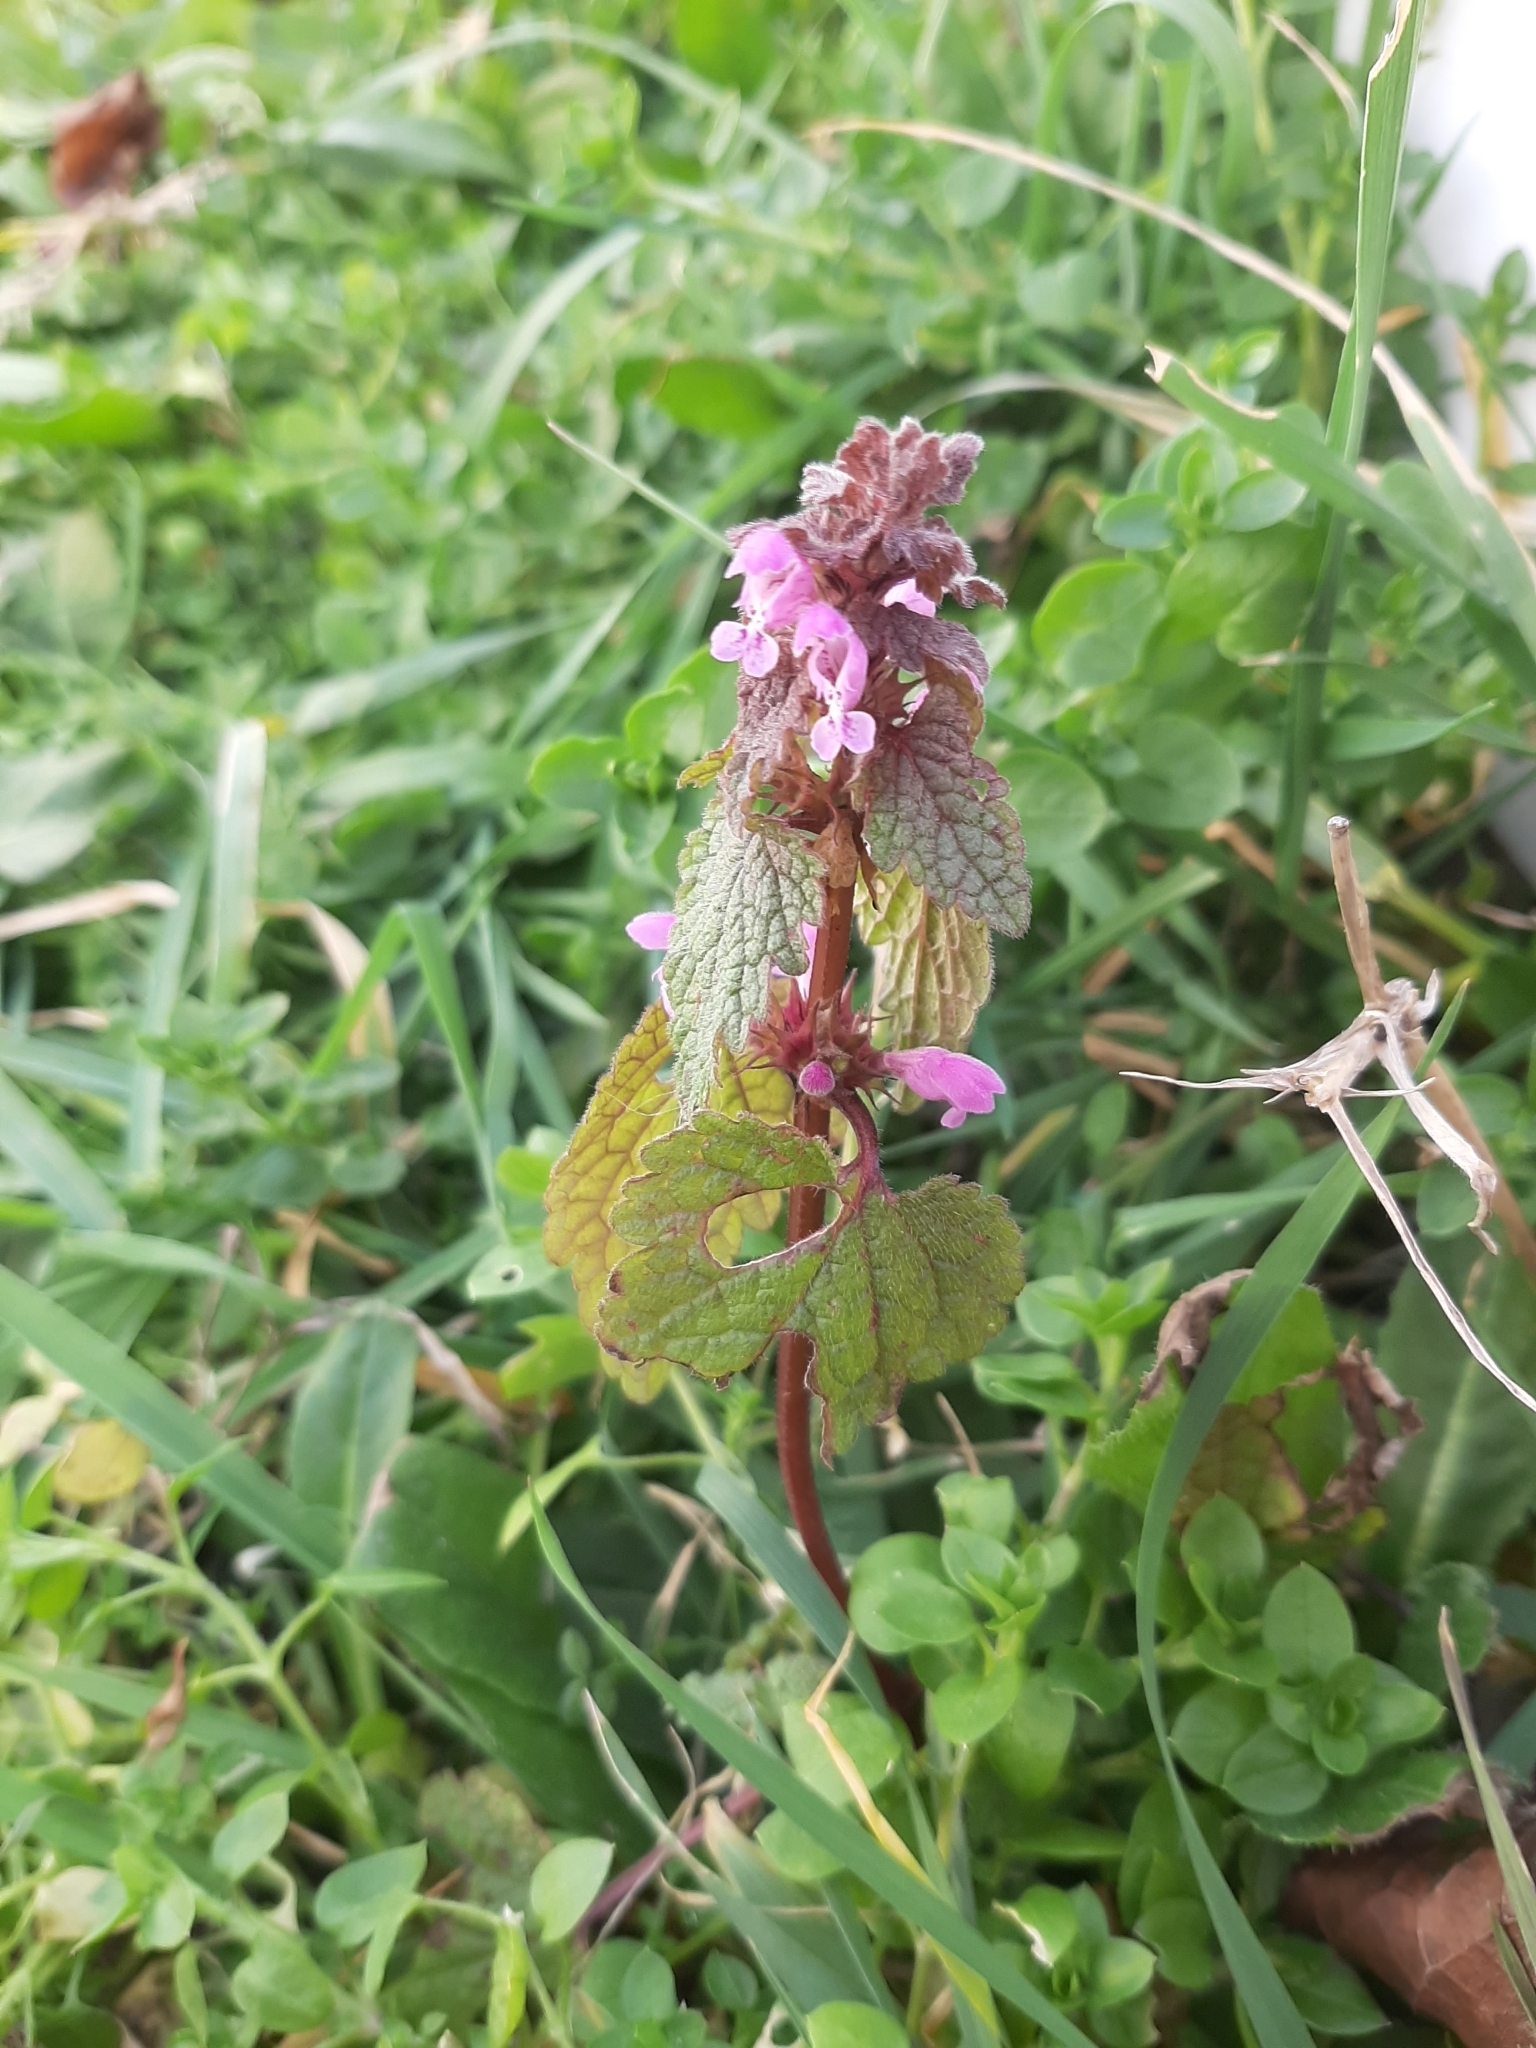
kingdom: Plantae
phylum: Tracheophyta
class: Magnoliopsida
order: Lamiales
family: Lamiaceae
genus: Lamium
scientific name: Lamium purpureum
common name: Red dead-nettle
